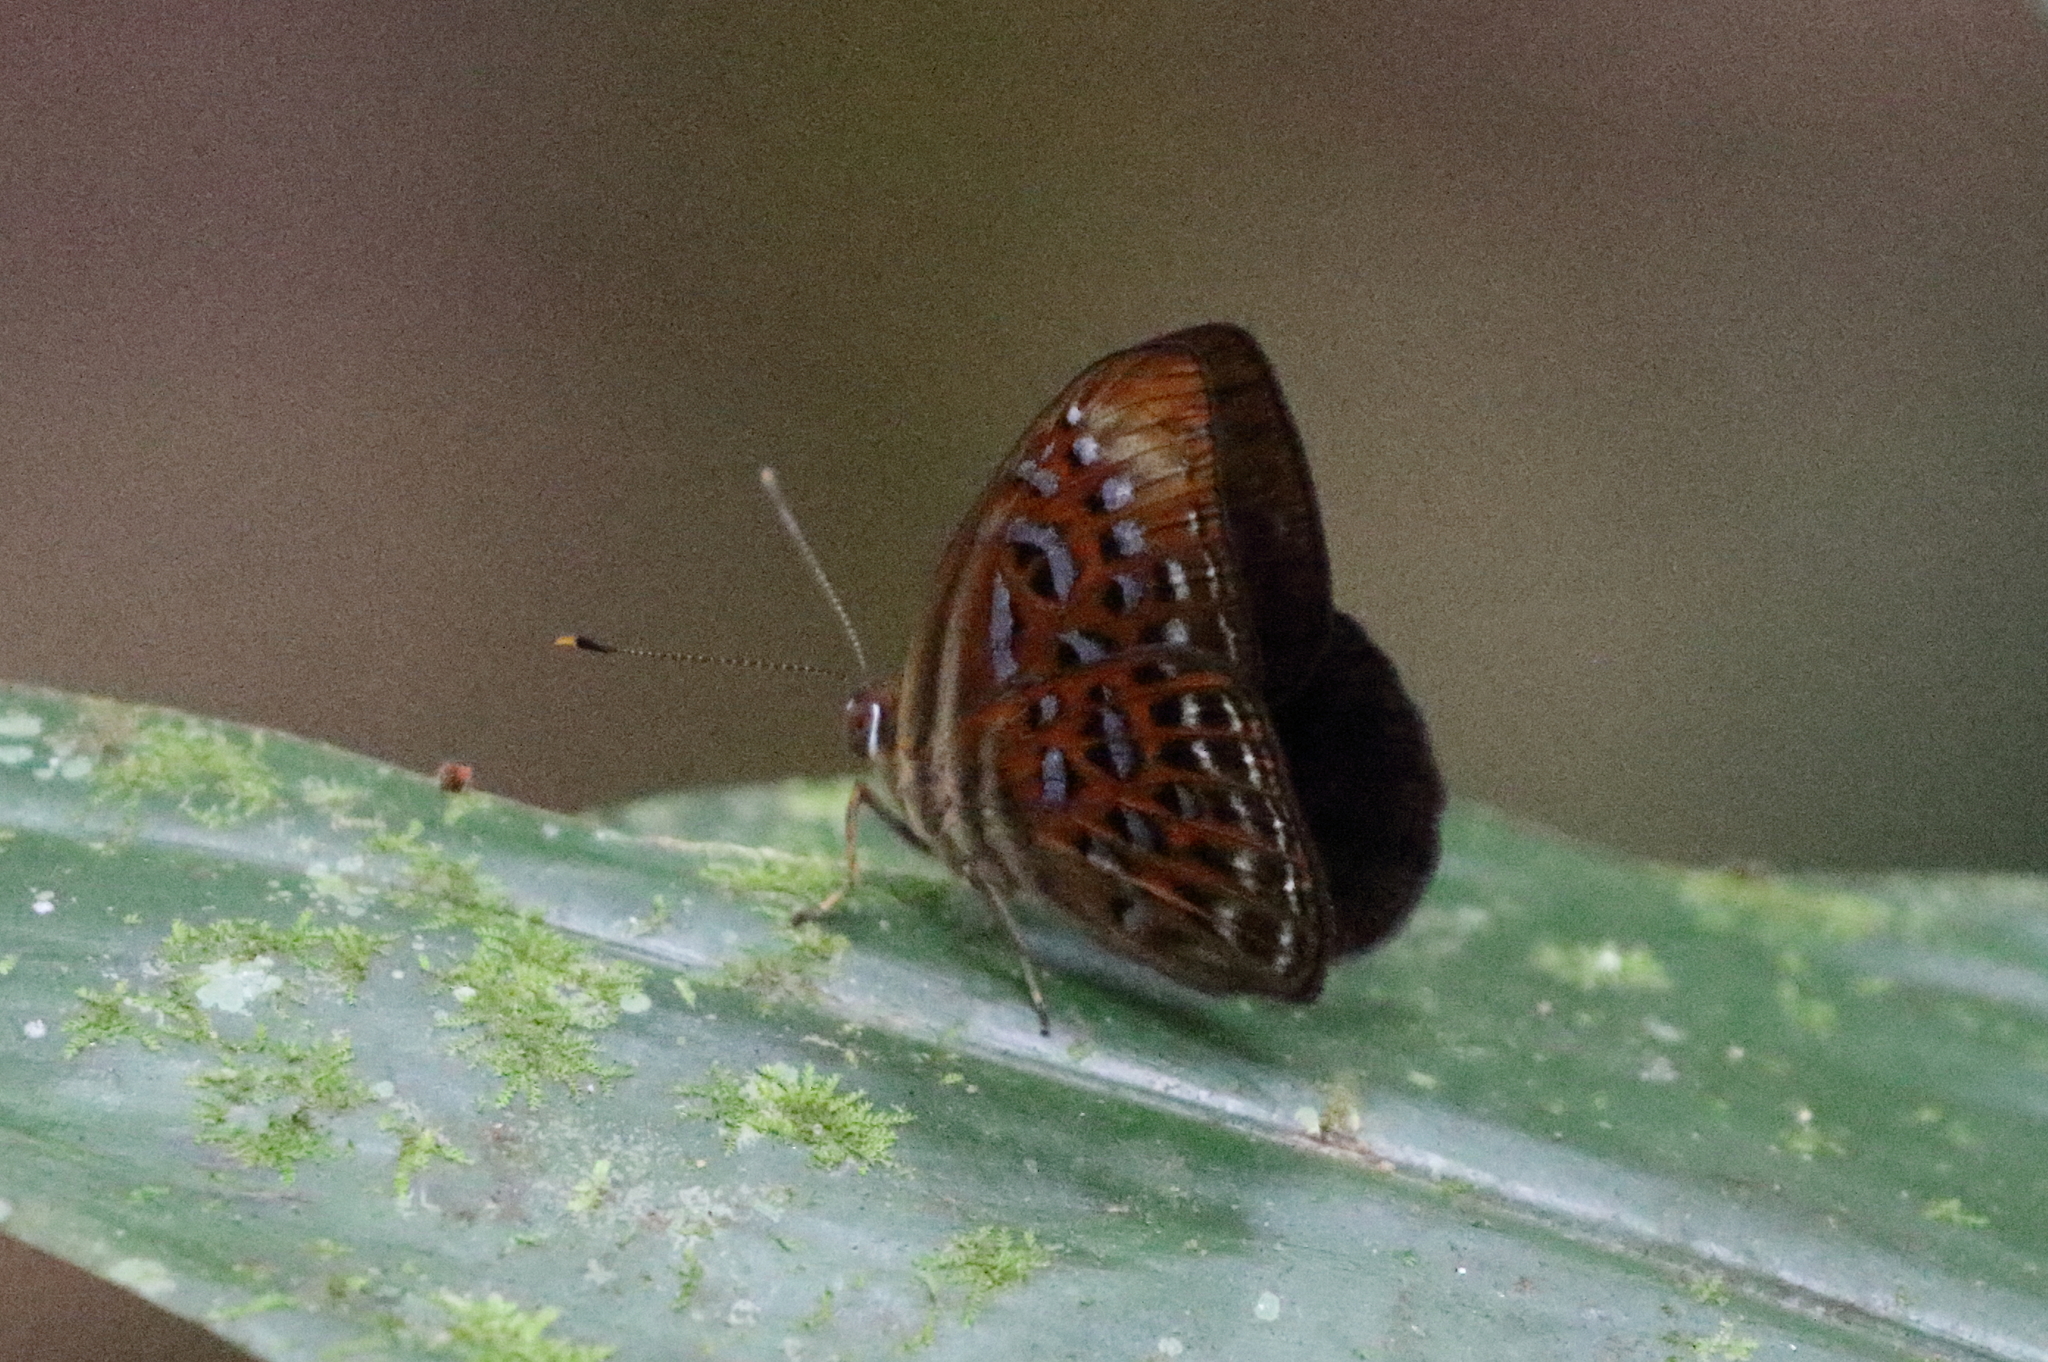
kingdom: Animalia
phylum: Arthropoda
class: Insecta
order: Lepidoptera
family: Erebidae
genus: Dysschema
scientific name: Dysschema
